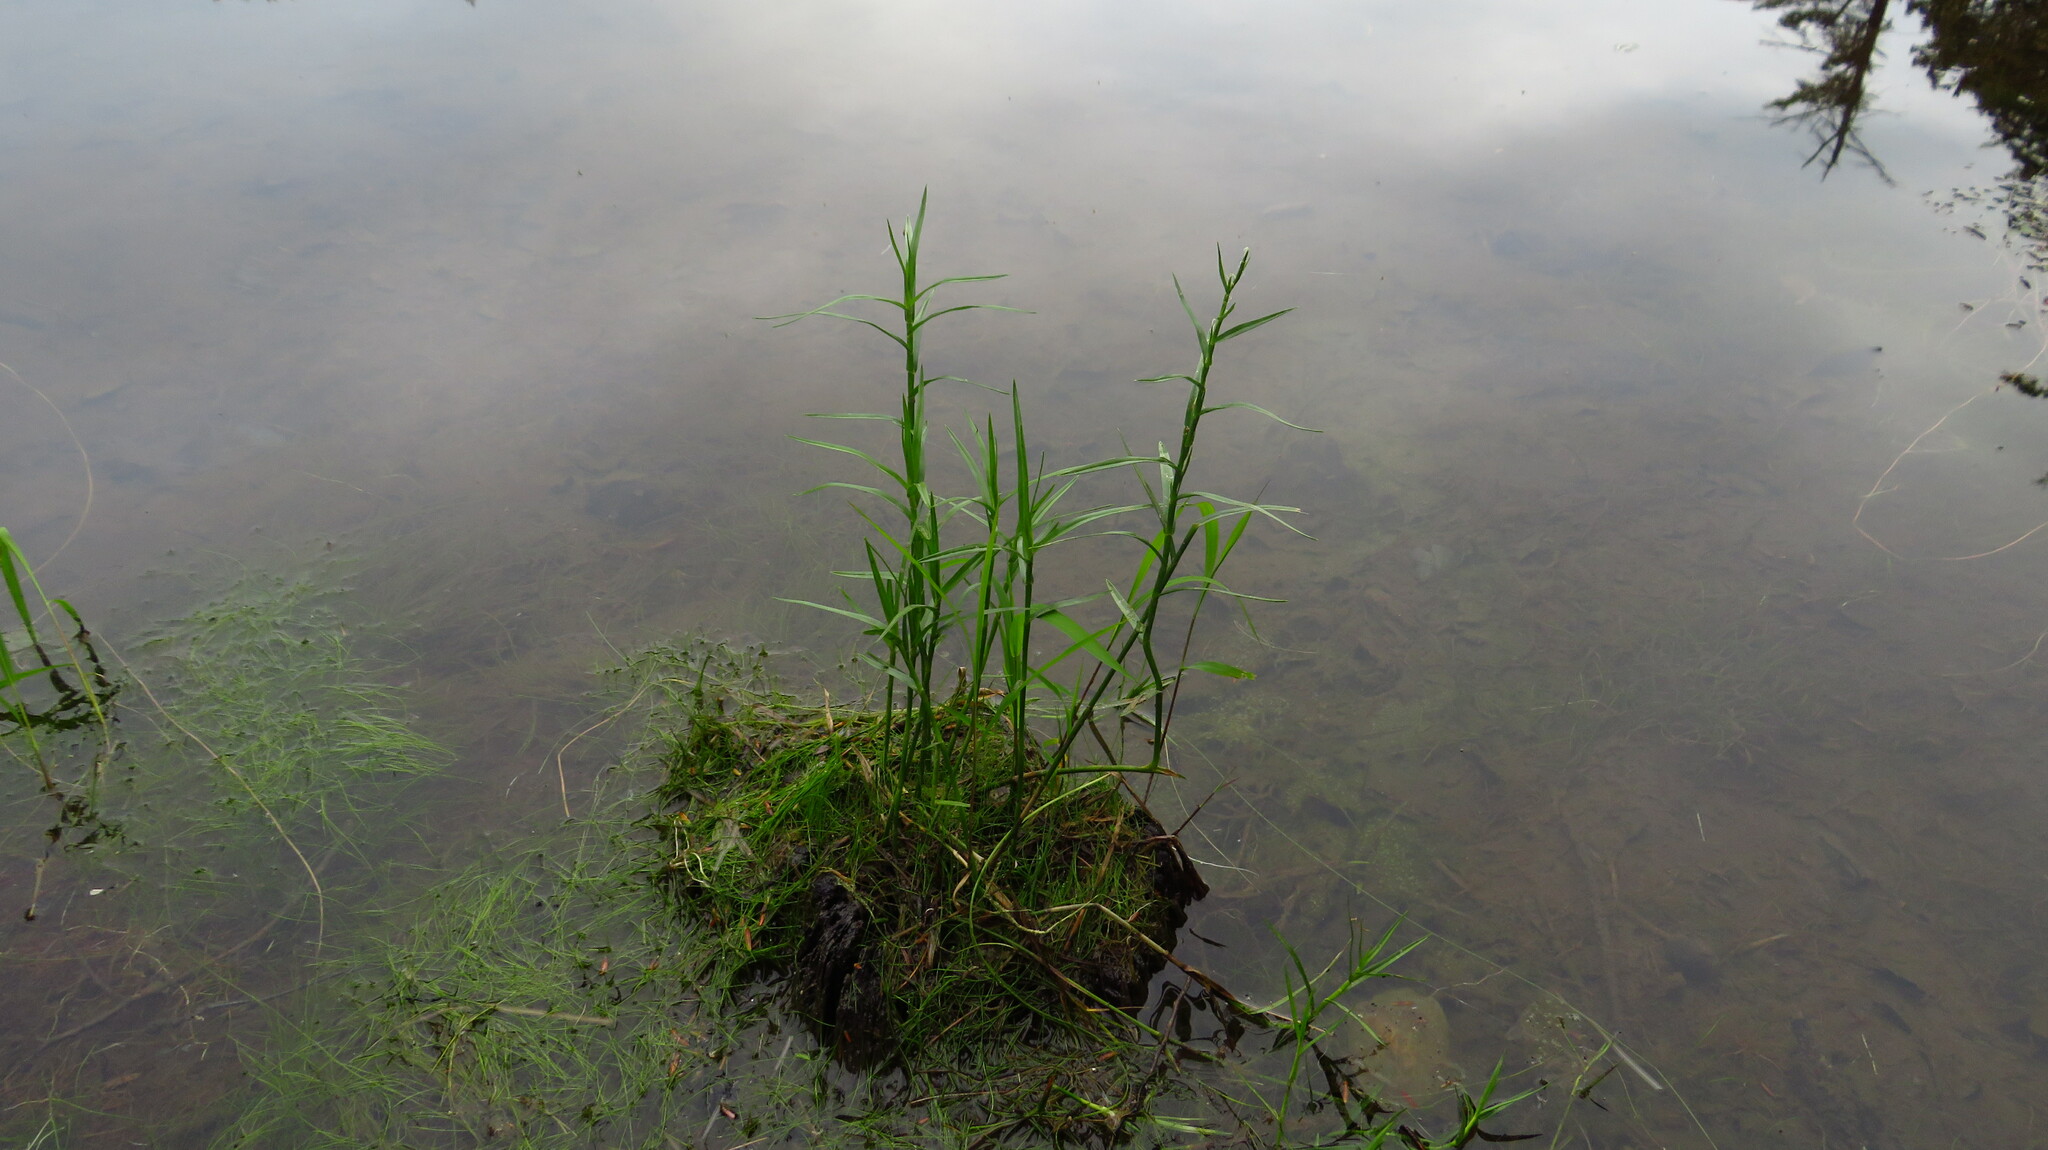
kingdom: Plantae
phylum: Tracheophyta
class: Liliopsida
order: Poales
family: Cyperaceae
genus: Dulichium
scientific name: Dulichium arundinaceum
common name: Three-way sedge
